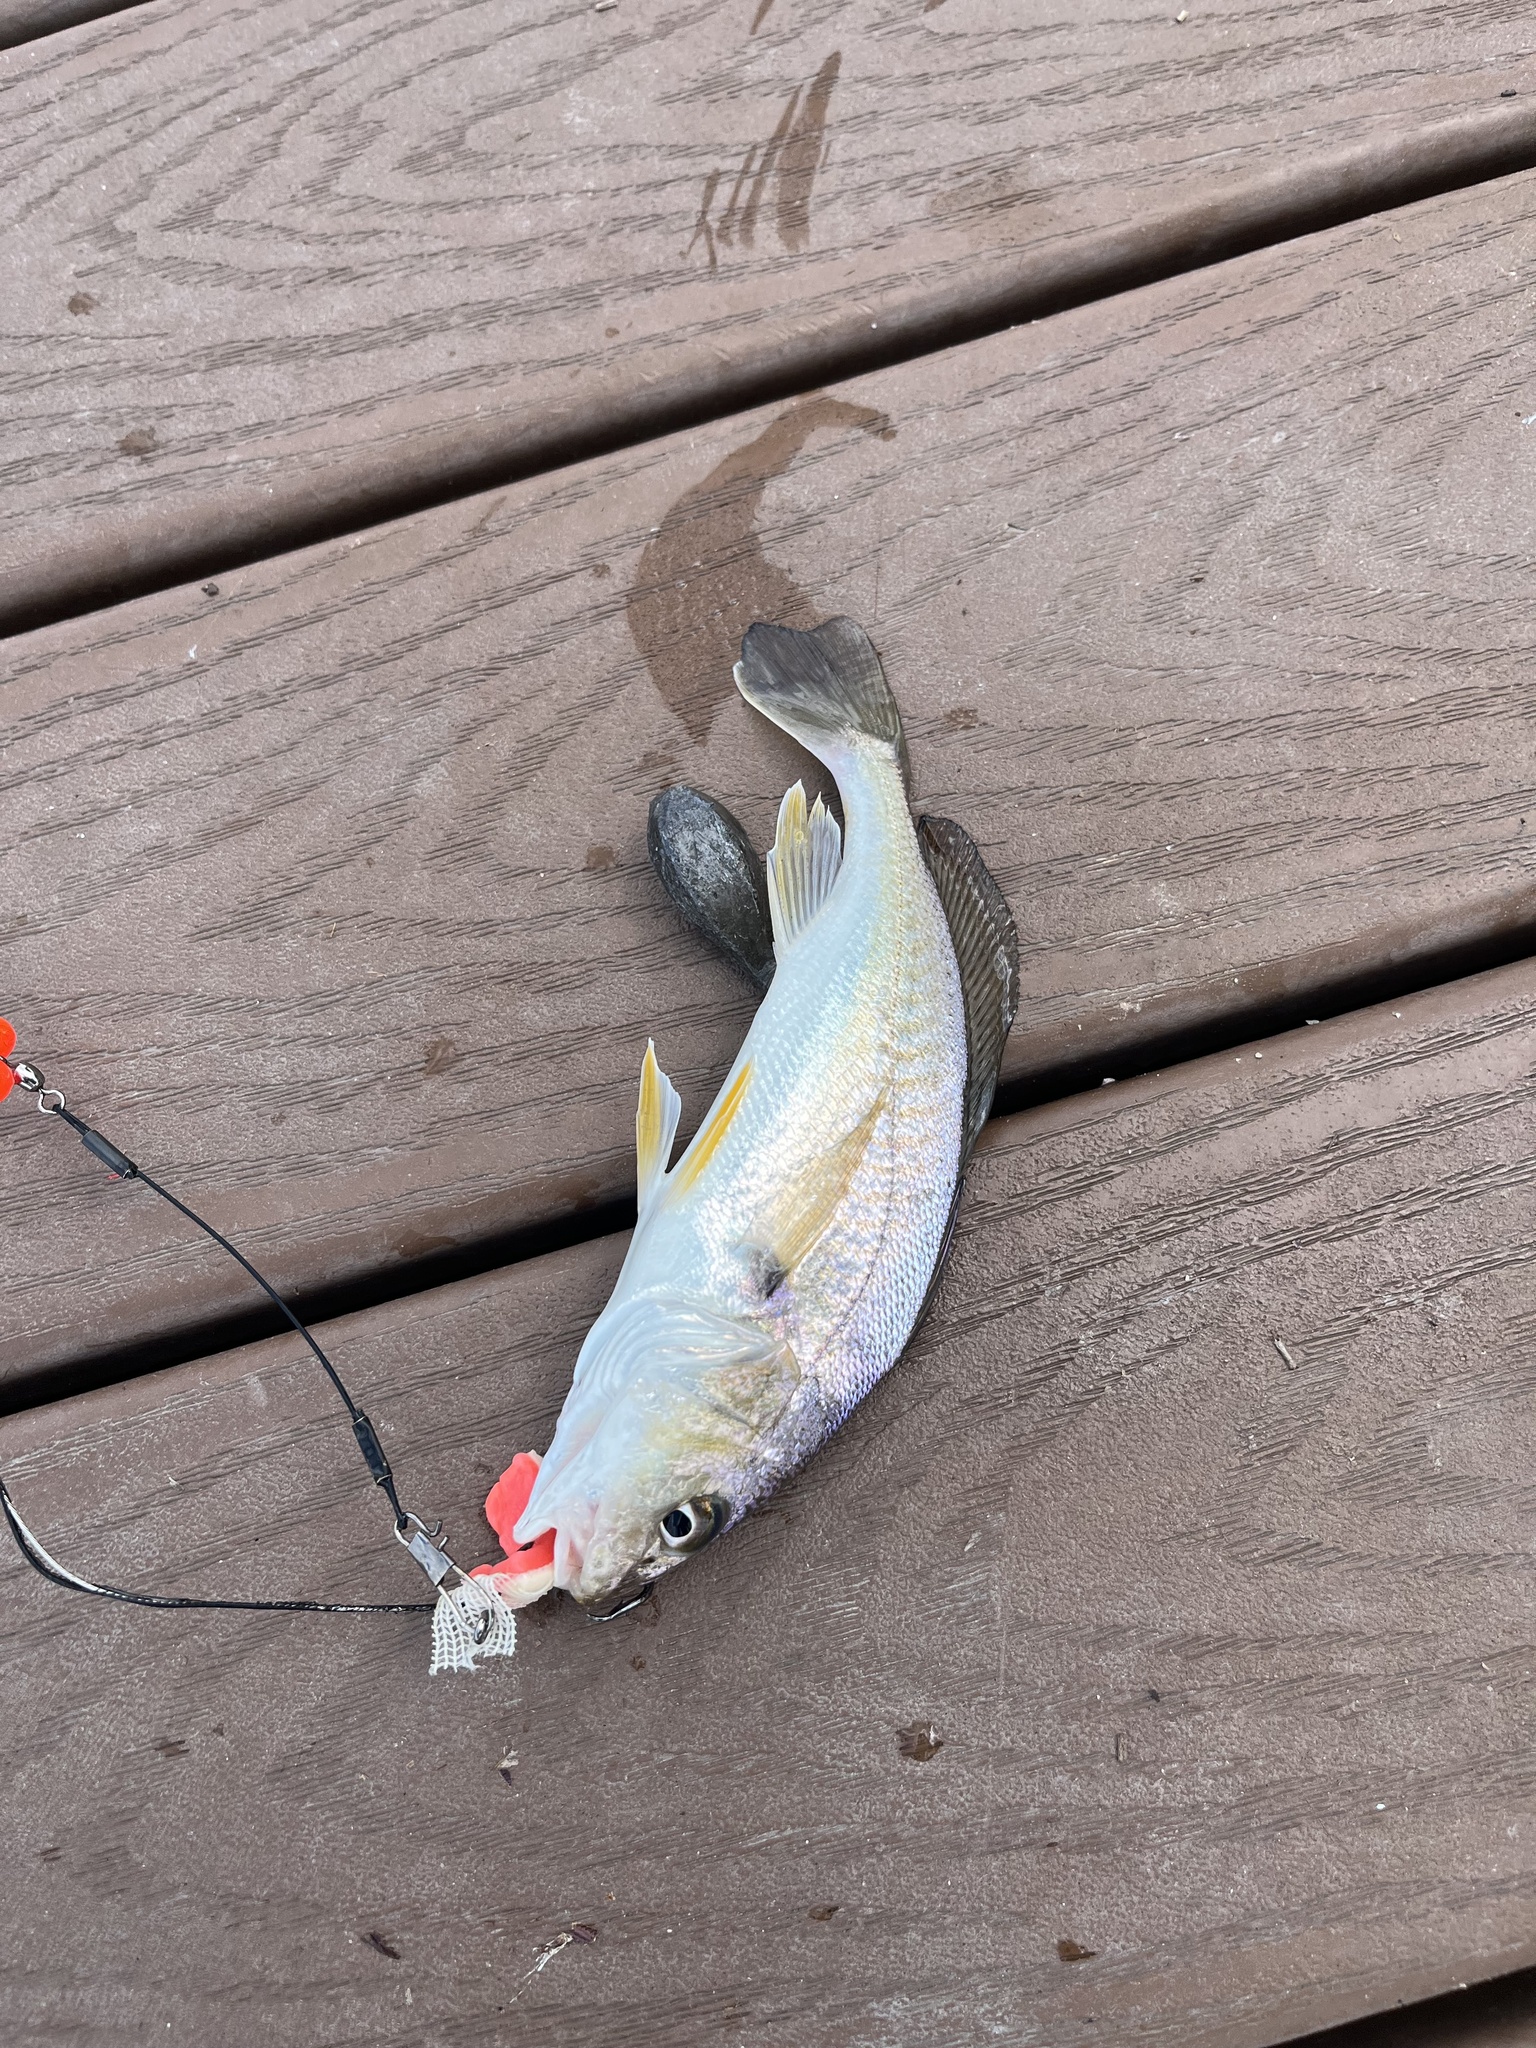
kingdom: Animalia
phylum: Chordata
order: Perciformes
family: Sciaenidae
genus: Micropogonias
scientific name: Micropogonias undulatus
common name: Atlantic croaker
